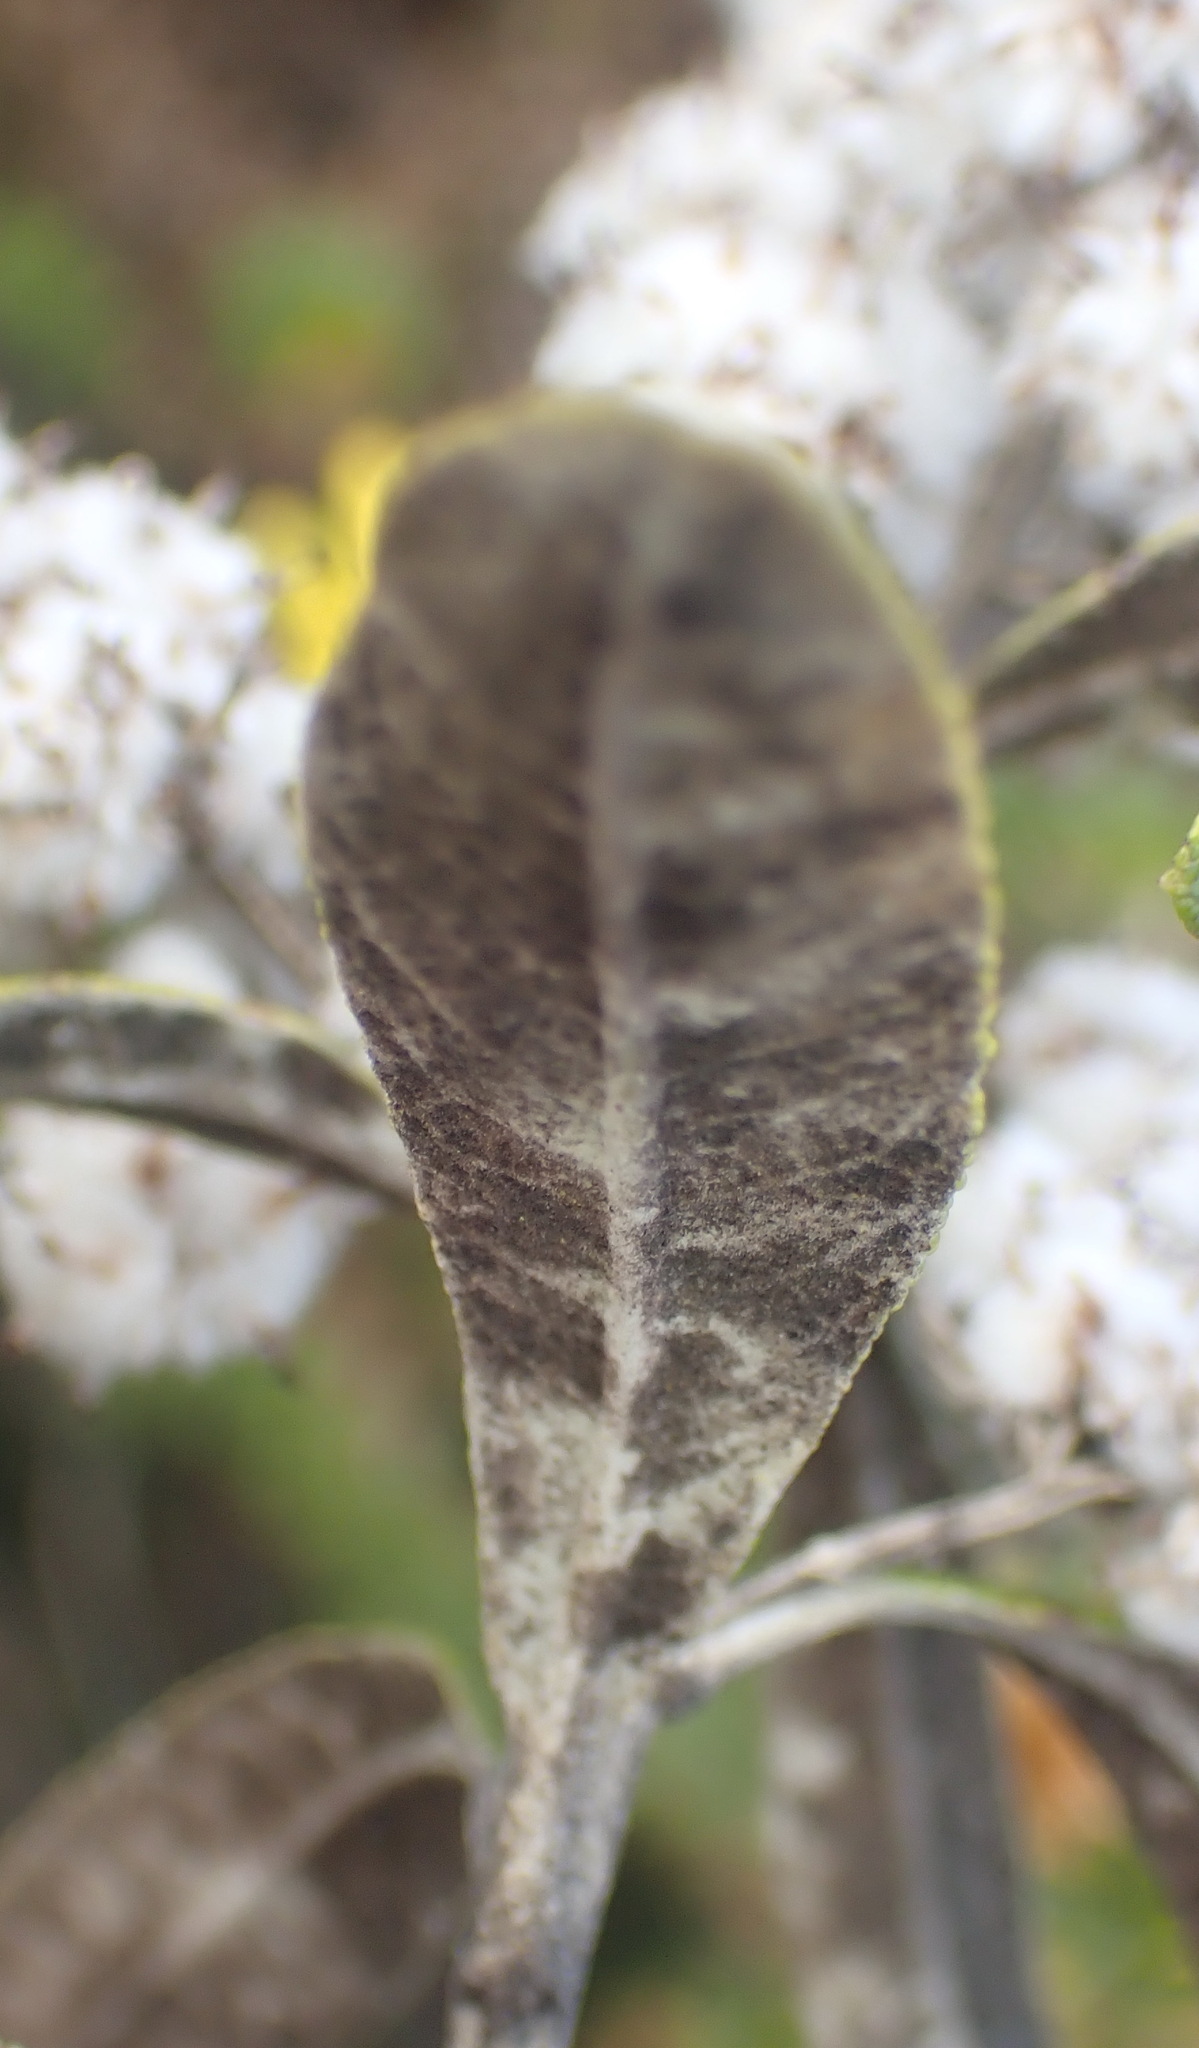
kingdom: Plantae
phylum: Tracheophyta
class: Magnoliopsida
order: Asterales
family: Asteraceae
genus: Tarchonanthus
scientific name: Tarchonanthus littoralis
